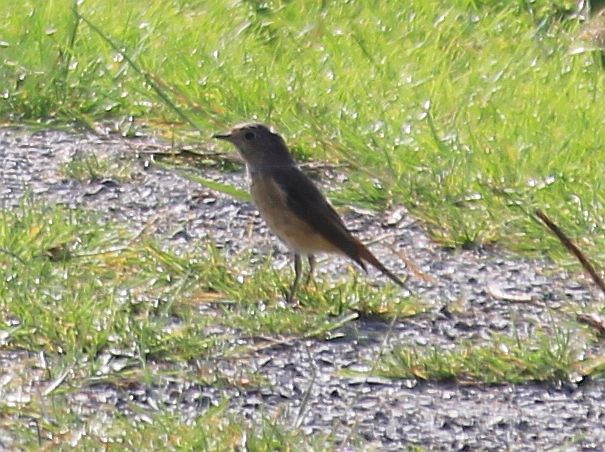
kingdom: Animalia
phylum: Chordata
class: Aves
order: Passeriformes
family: Muscicapidae
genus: Phoenicurus
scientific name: Phoenicurus phoenicurus
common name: Common redstart
